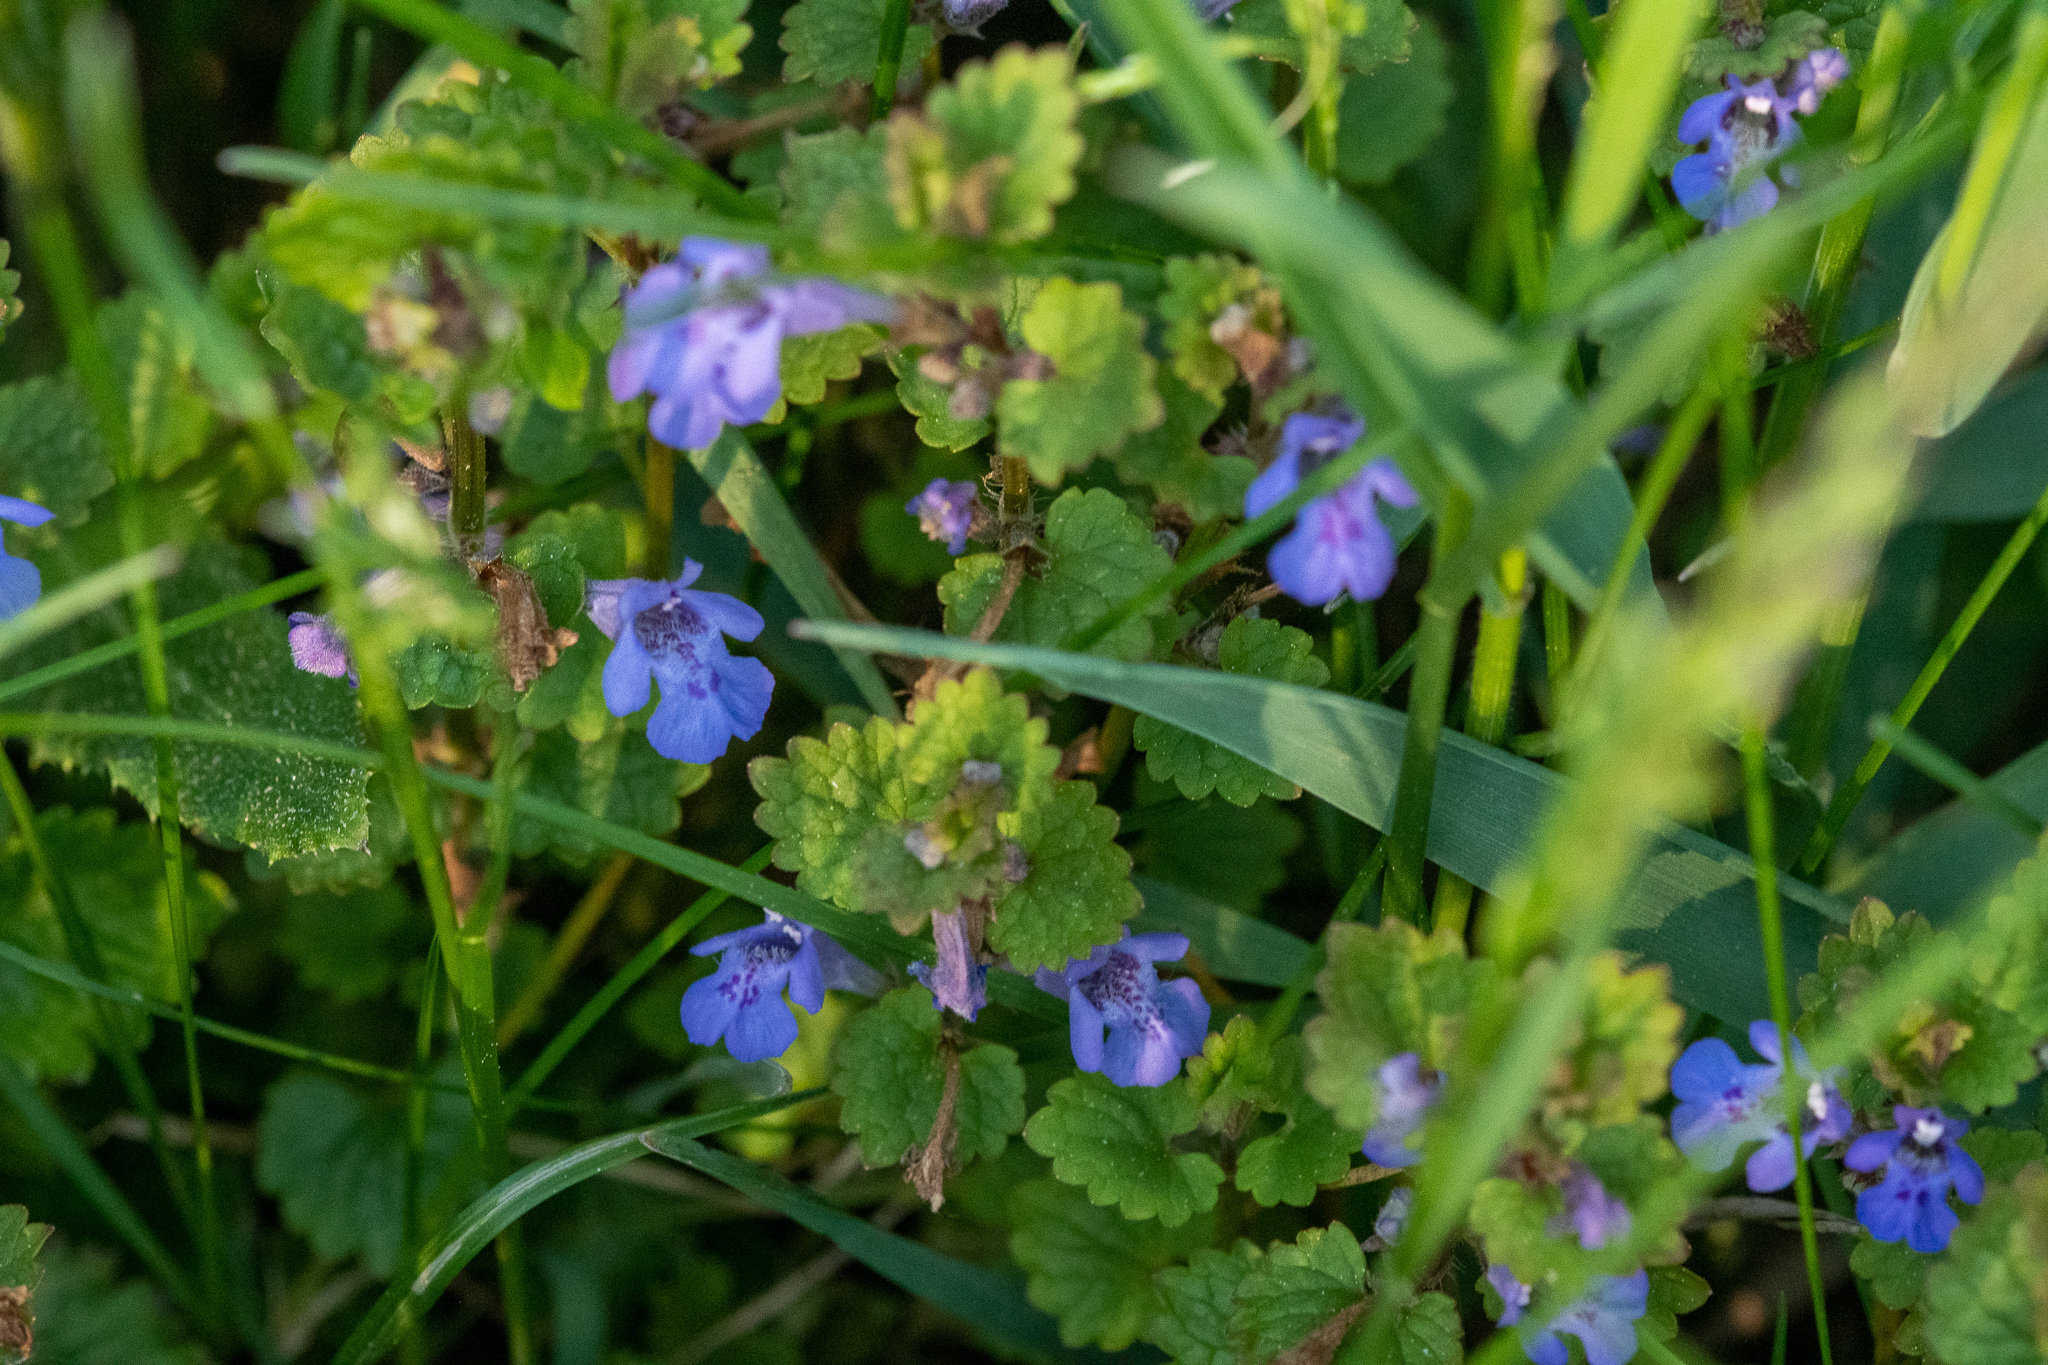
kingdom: Plantae
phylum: Tracheophyta
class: Magnoliopsida
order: Lamiales
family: Lamiaceae
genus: Glechoma
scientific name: Glechoma hederacea
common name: Ground ivy
